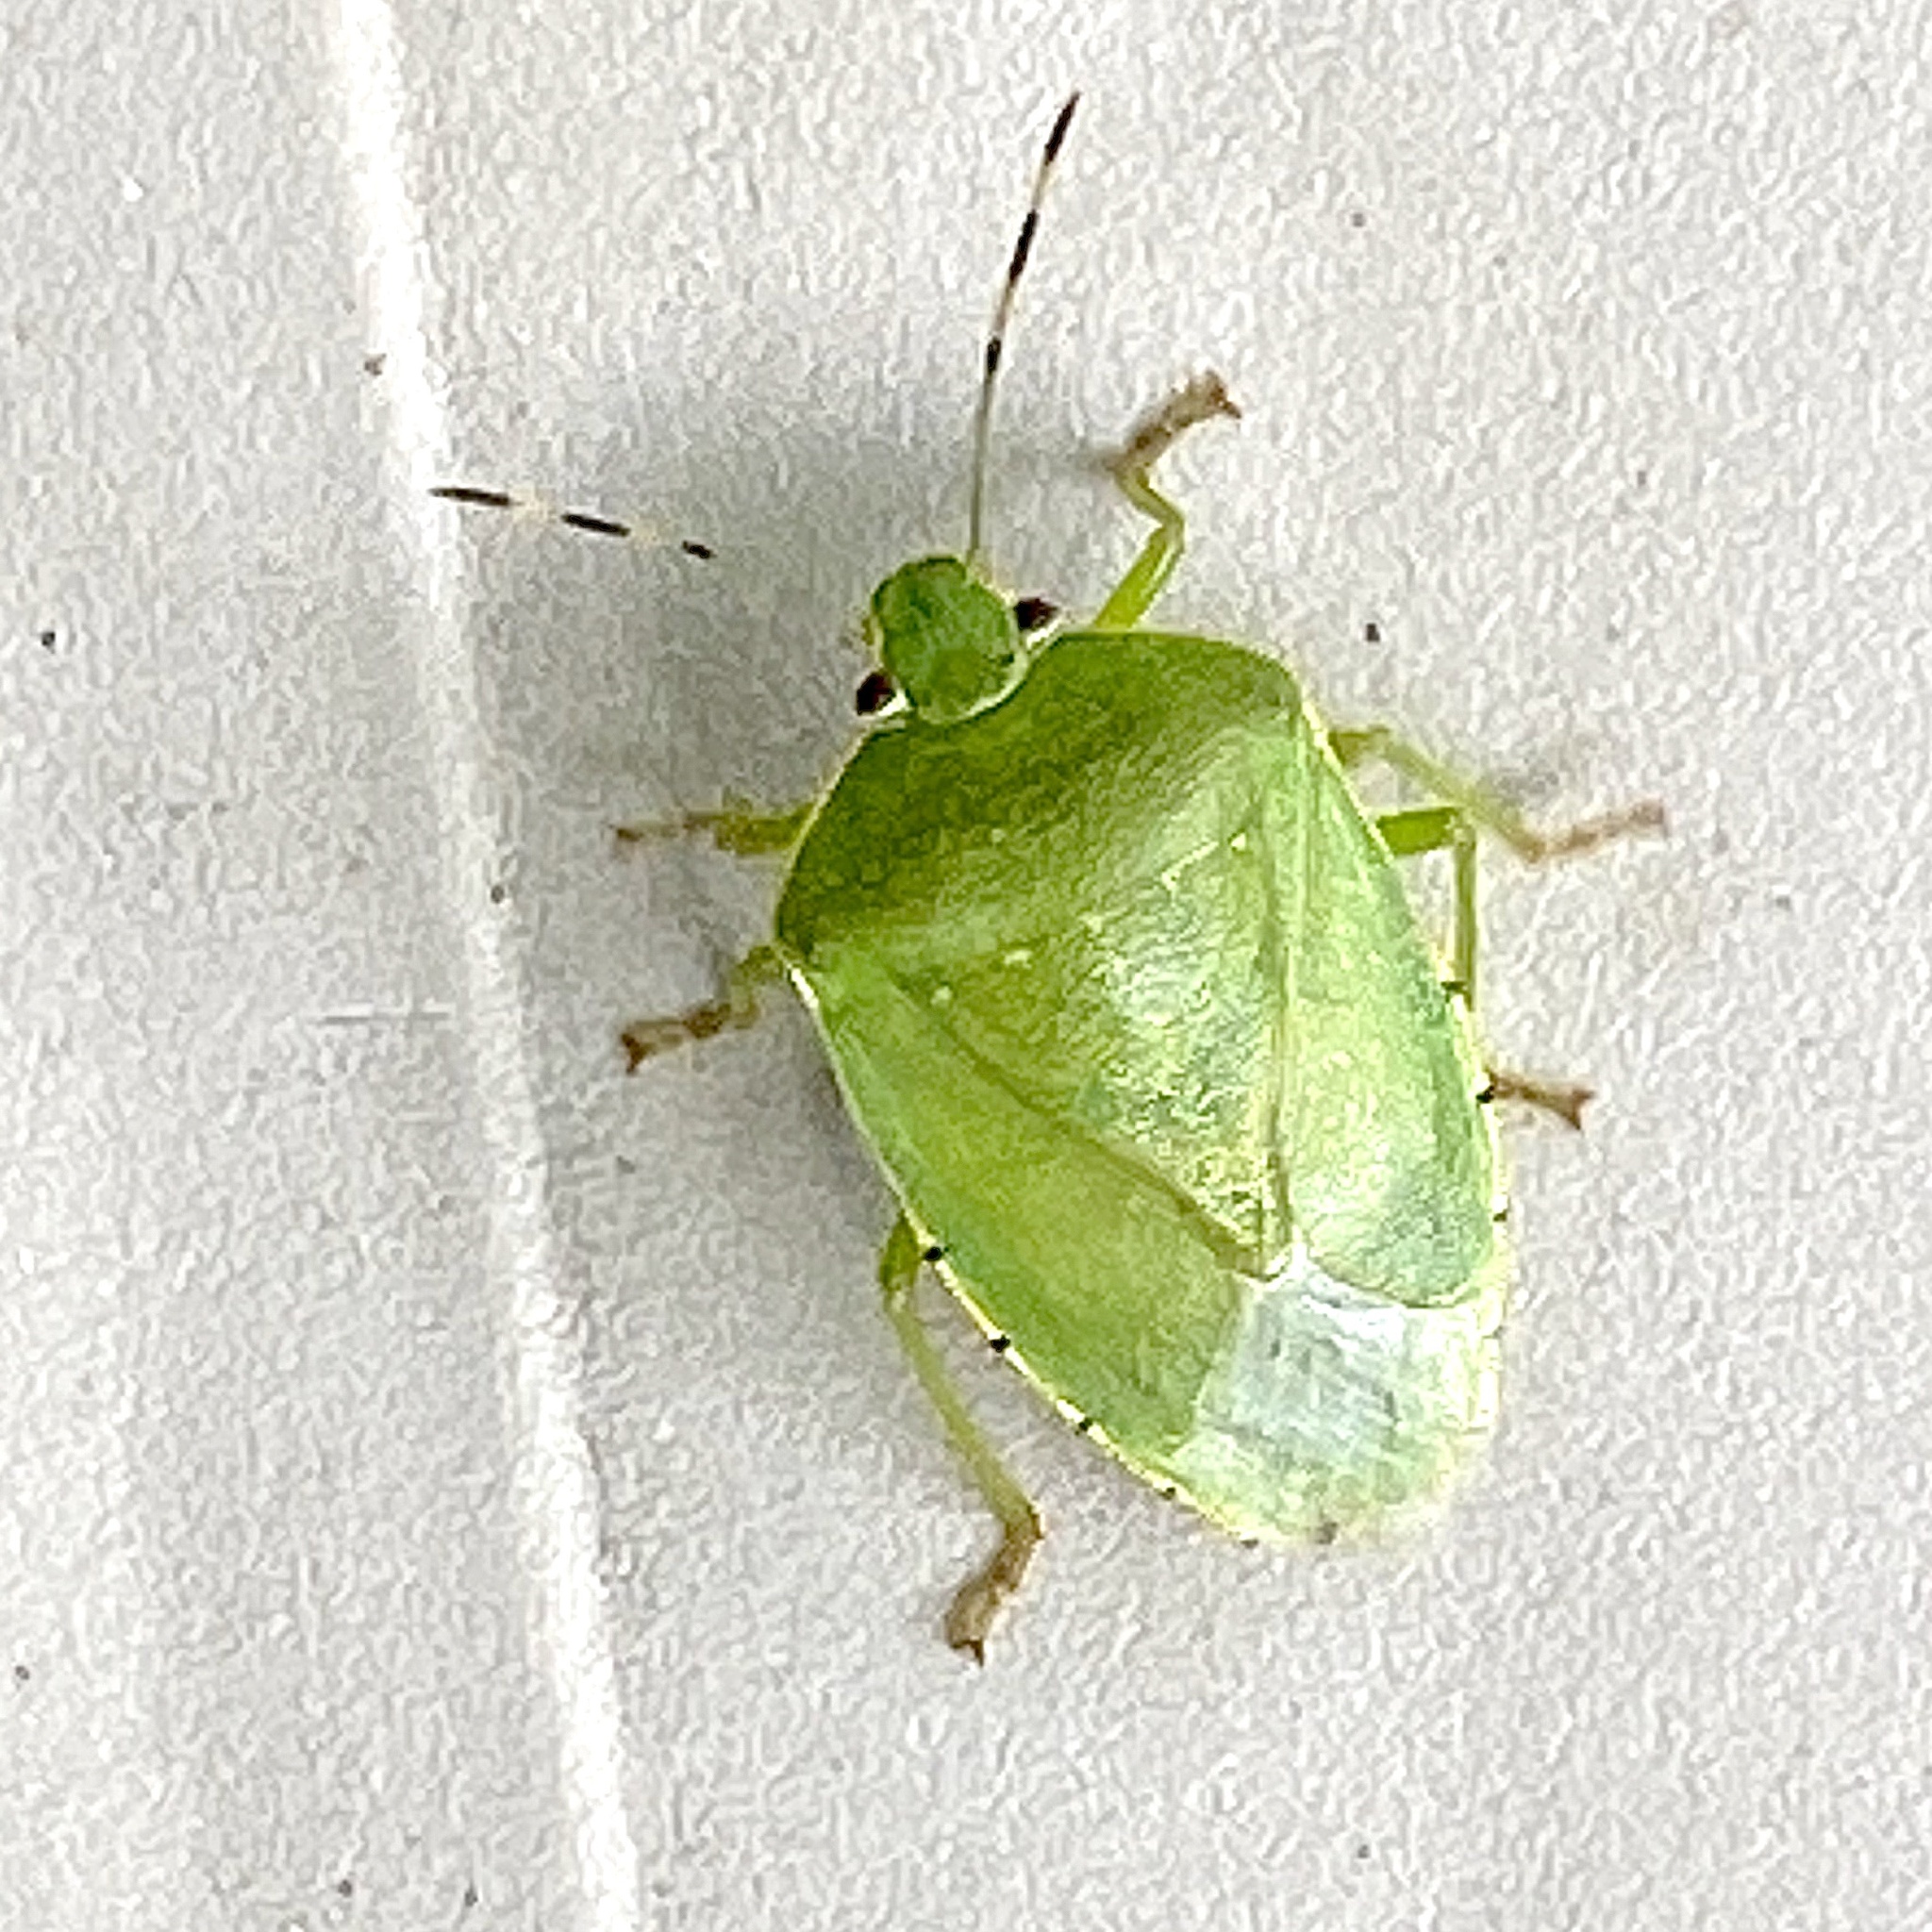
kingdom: Animalia
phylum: Arthropoda
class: Insecta
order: Hemiptera
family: Pentatomidae
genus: Chinavia
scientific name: Chinavia hilaris
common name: Green stink bug
